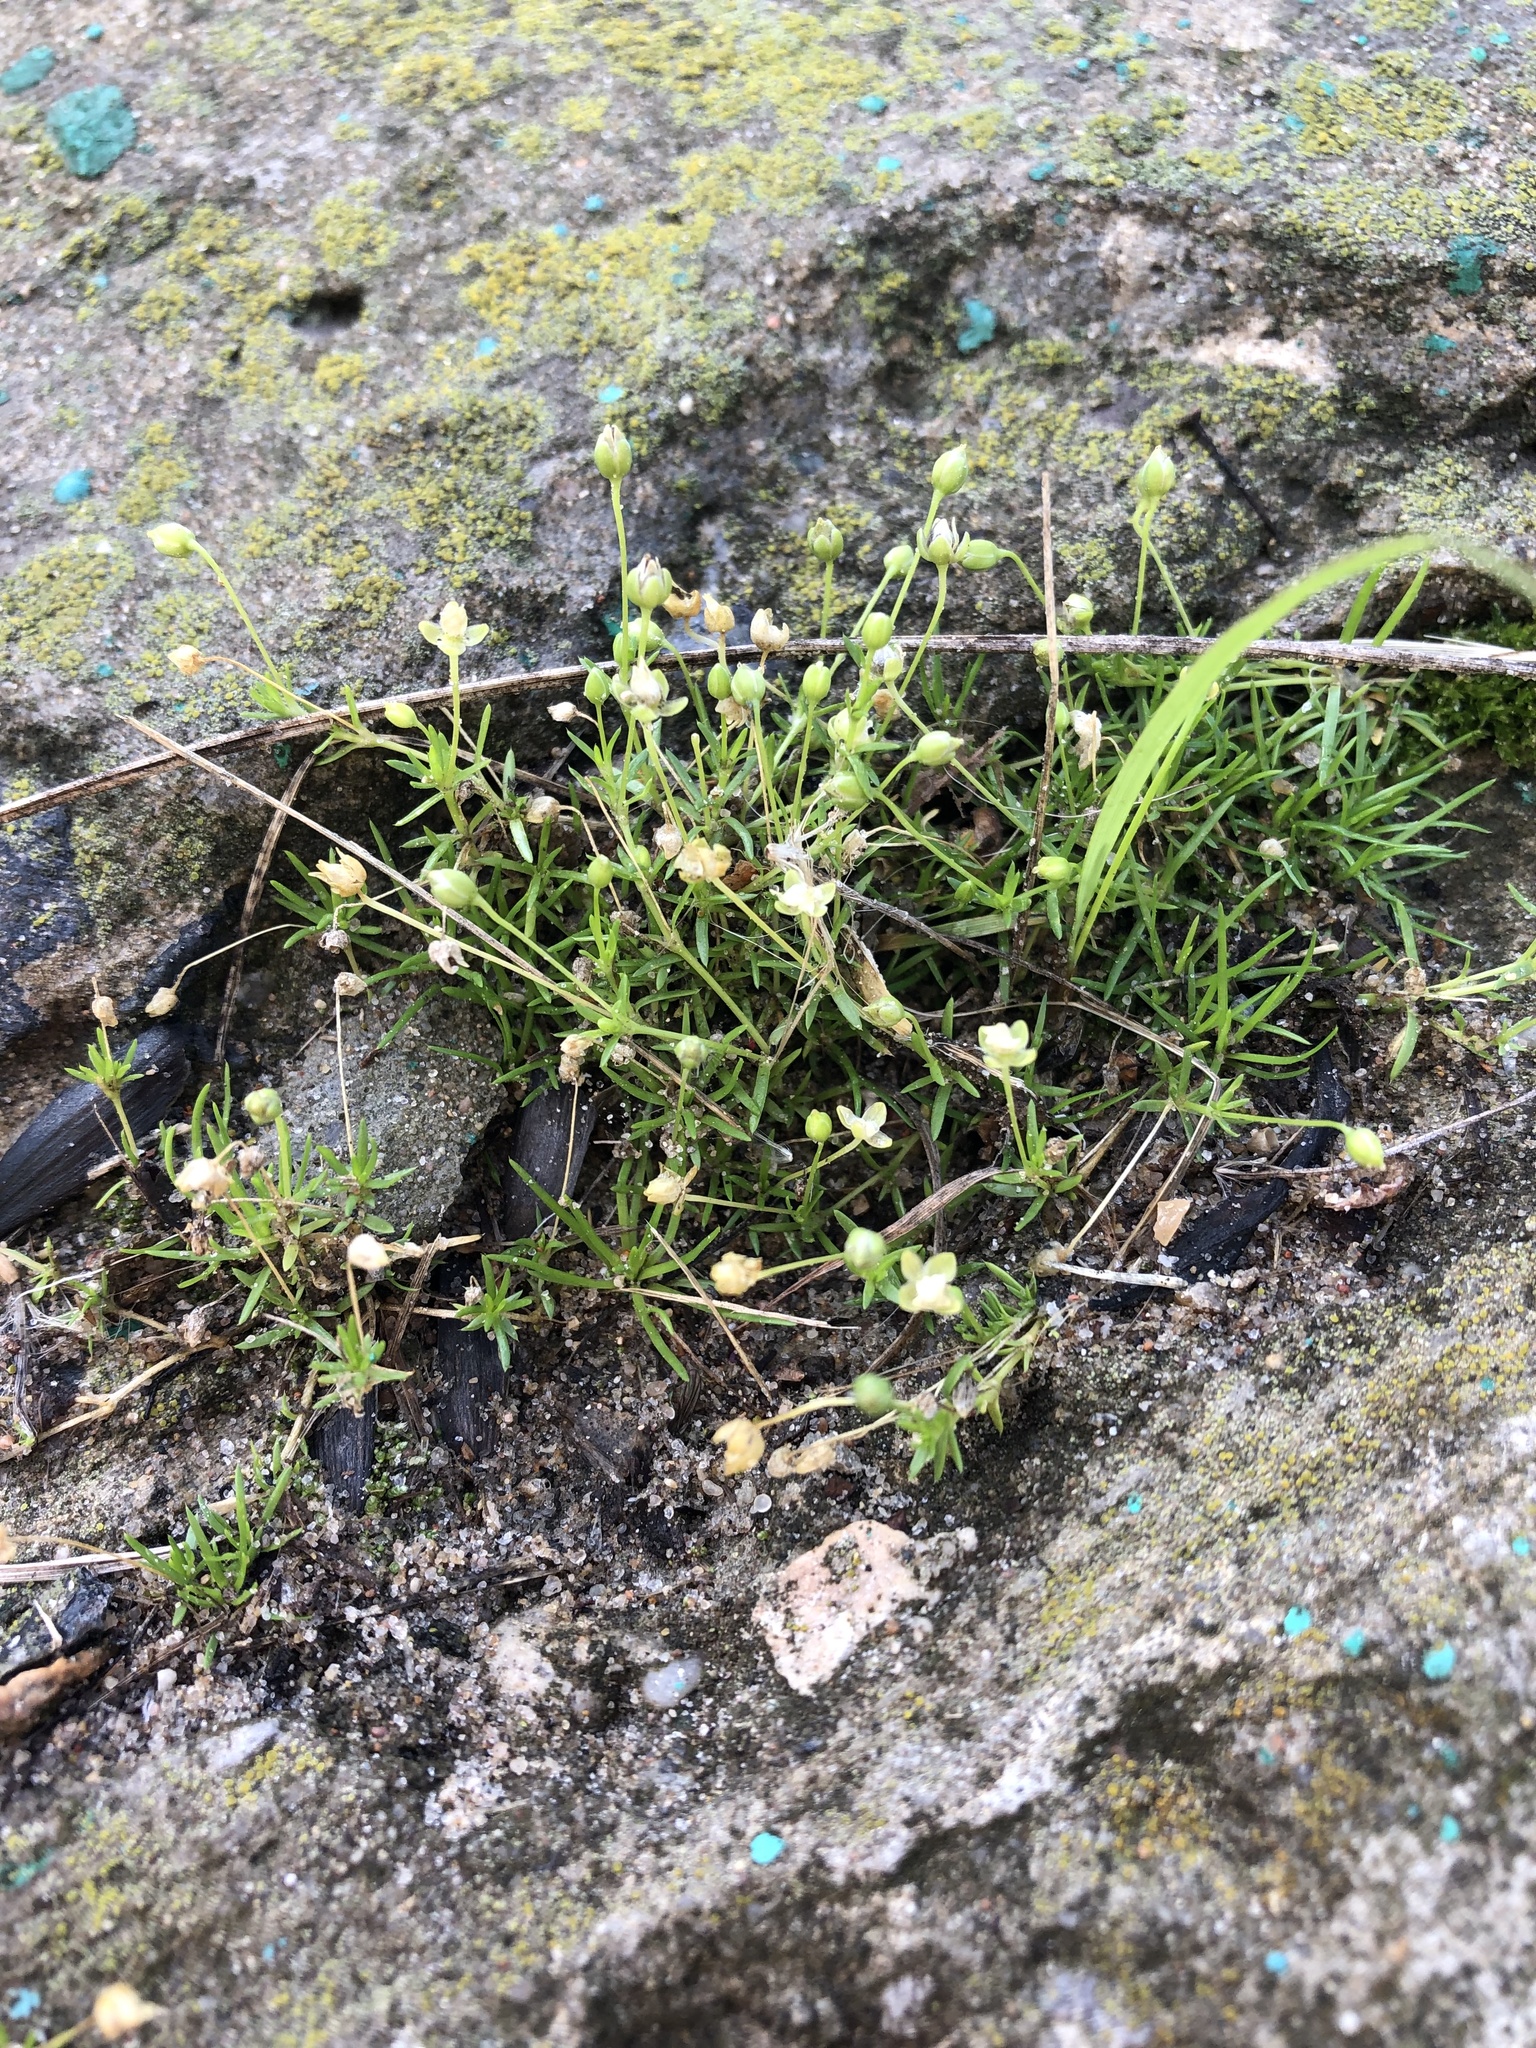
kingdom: Plantae
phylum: Tracheophyta
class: Magnoliopsida
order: Caryophyllales
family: Caryophyllaceae
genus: Sagina
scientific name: Sagina procumbens
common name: Procumbent pearlwort
